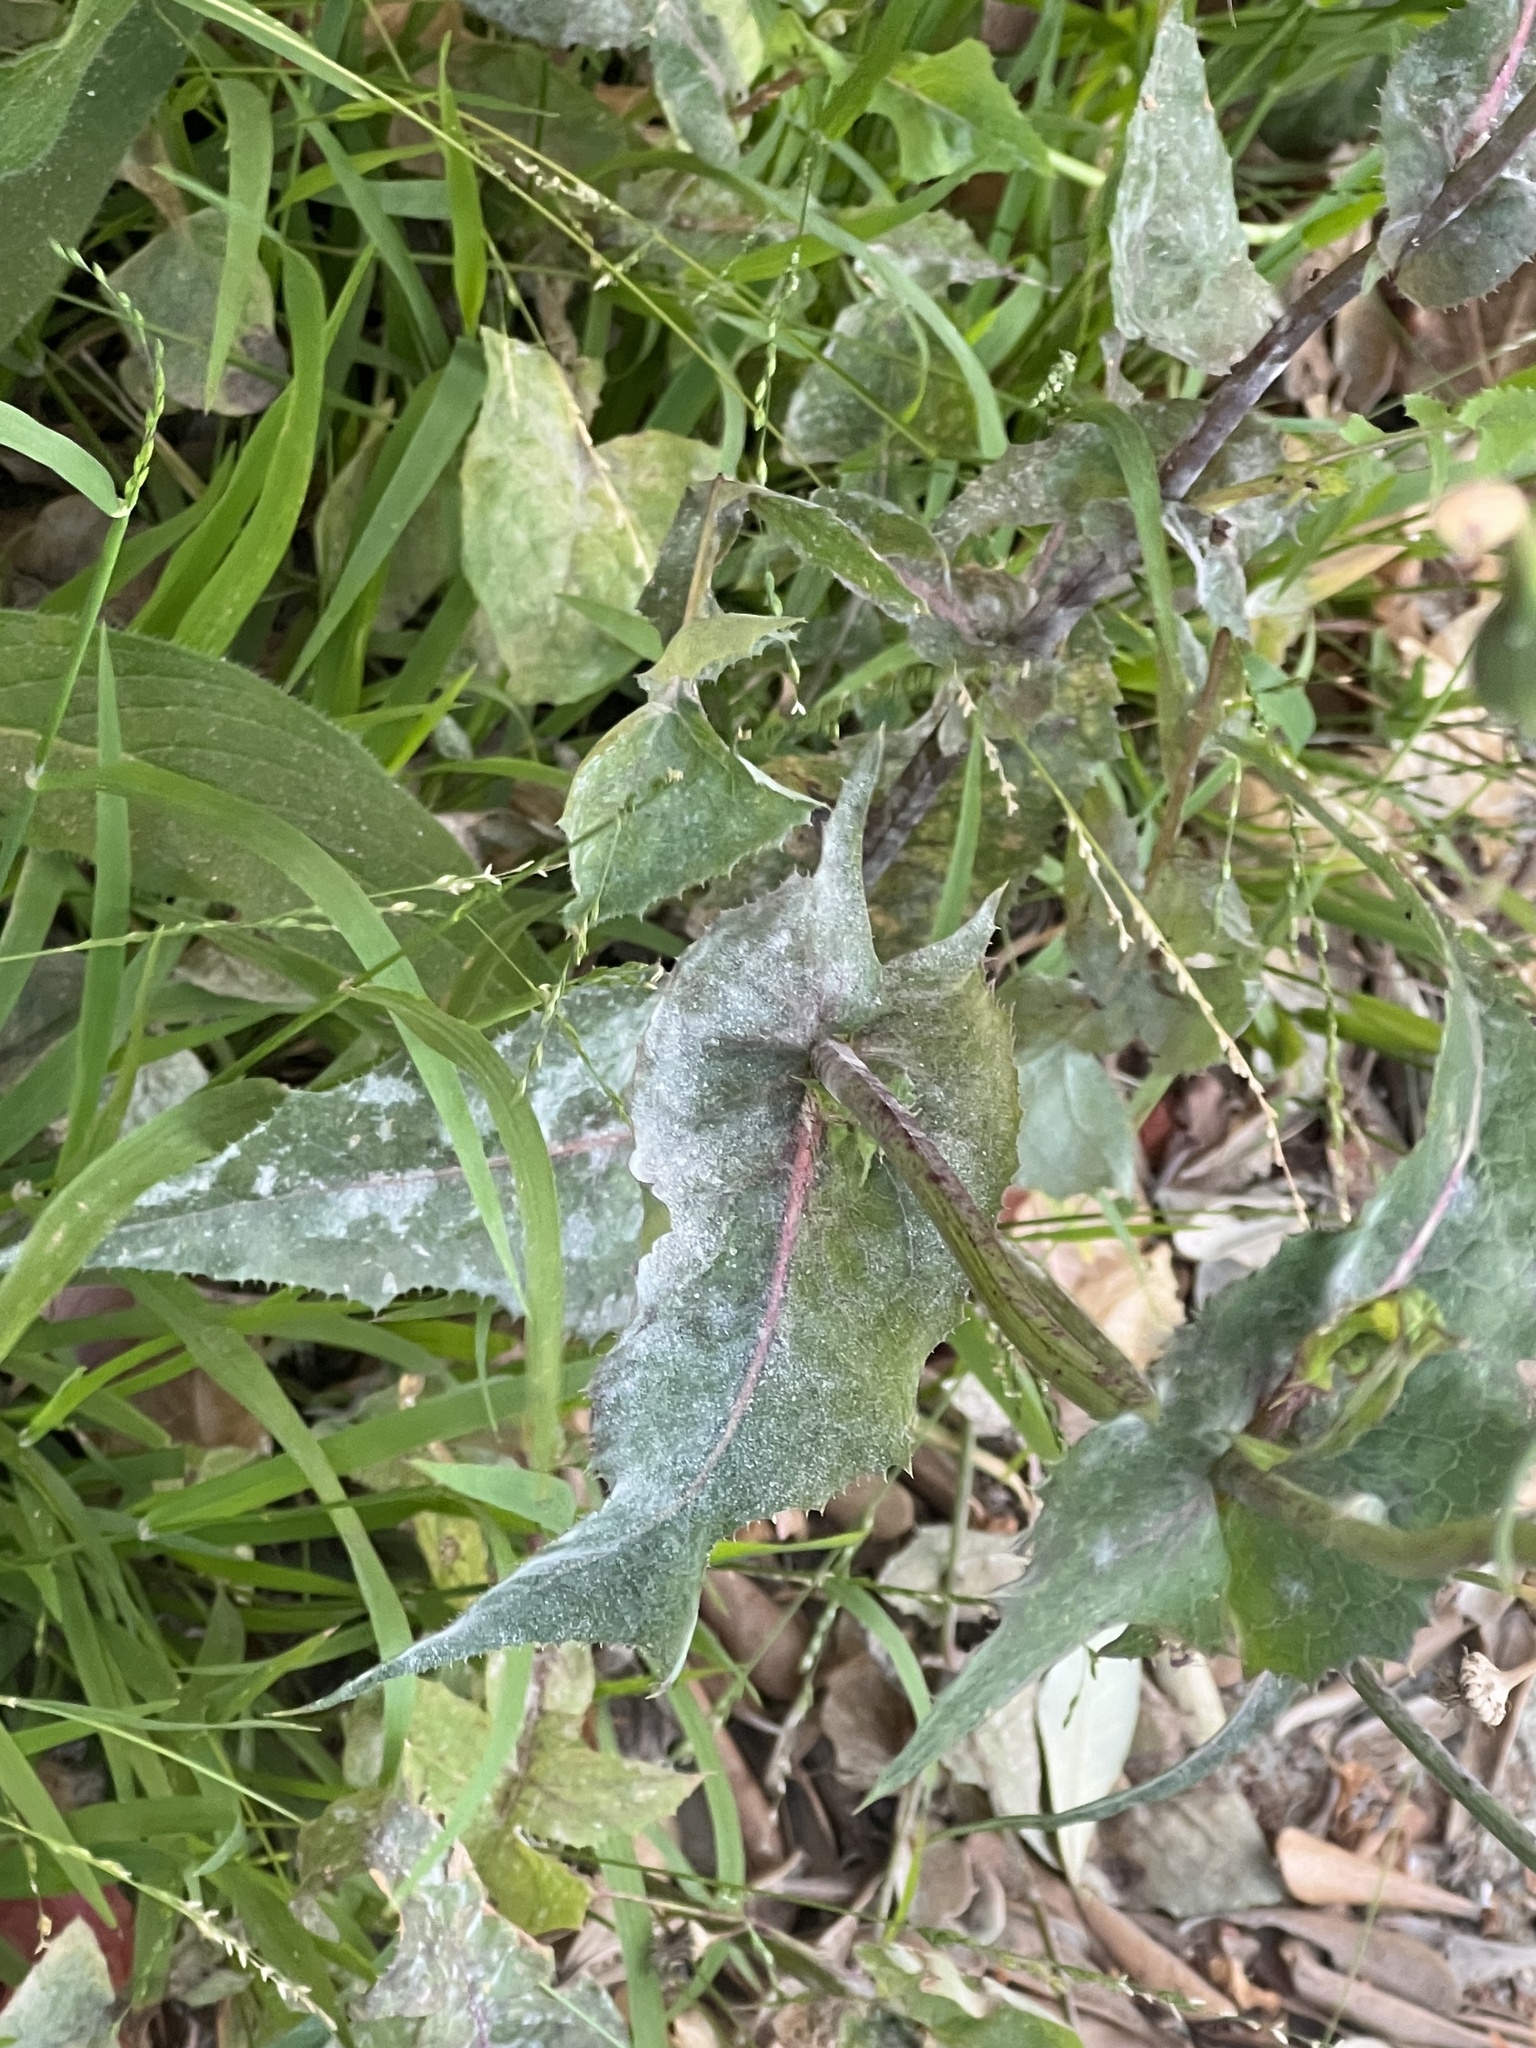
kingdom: Fungi
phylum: Ascomycota
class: Leotiomycetes
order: Helotiales
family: Erysiphaceae
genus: Golovinomyces
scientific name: Golovinomyces sonchicola
